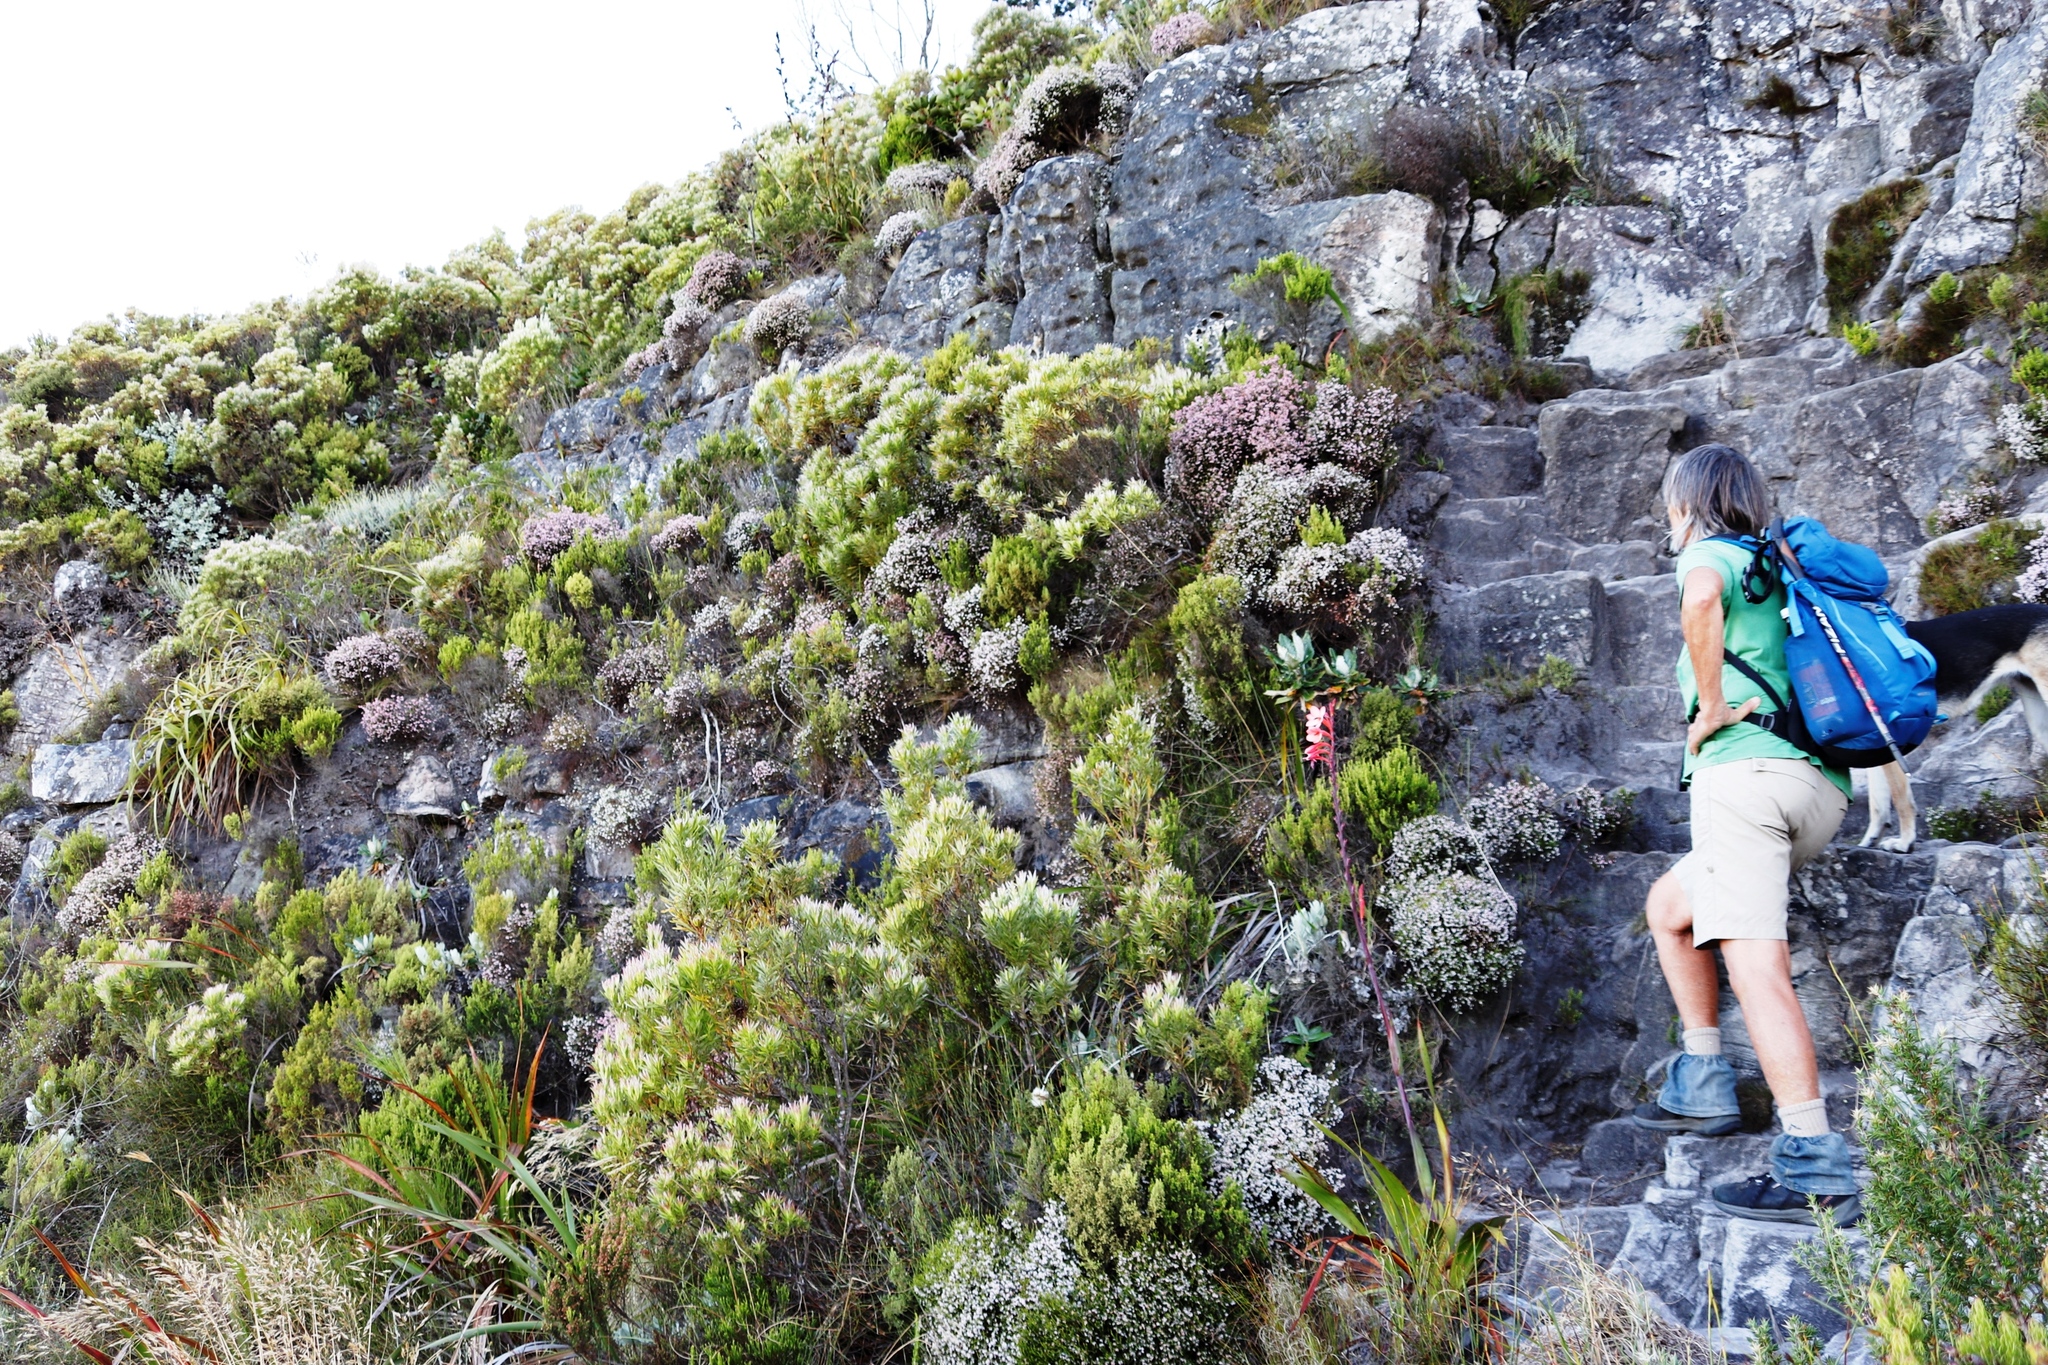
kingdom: Plantae
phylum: Tracheophyta
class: Magnoliopsida
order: Ericales
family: Ericaceae
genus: Erica
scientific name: Erica tenuifolia
